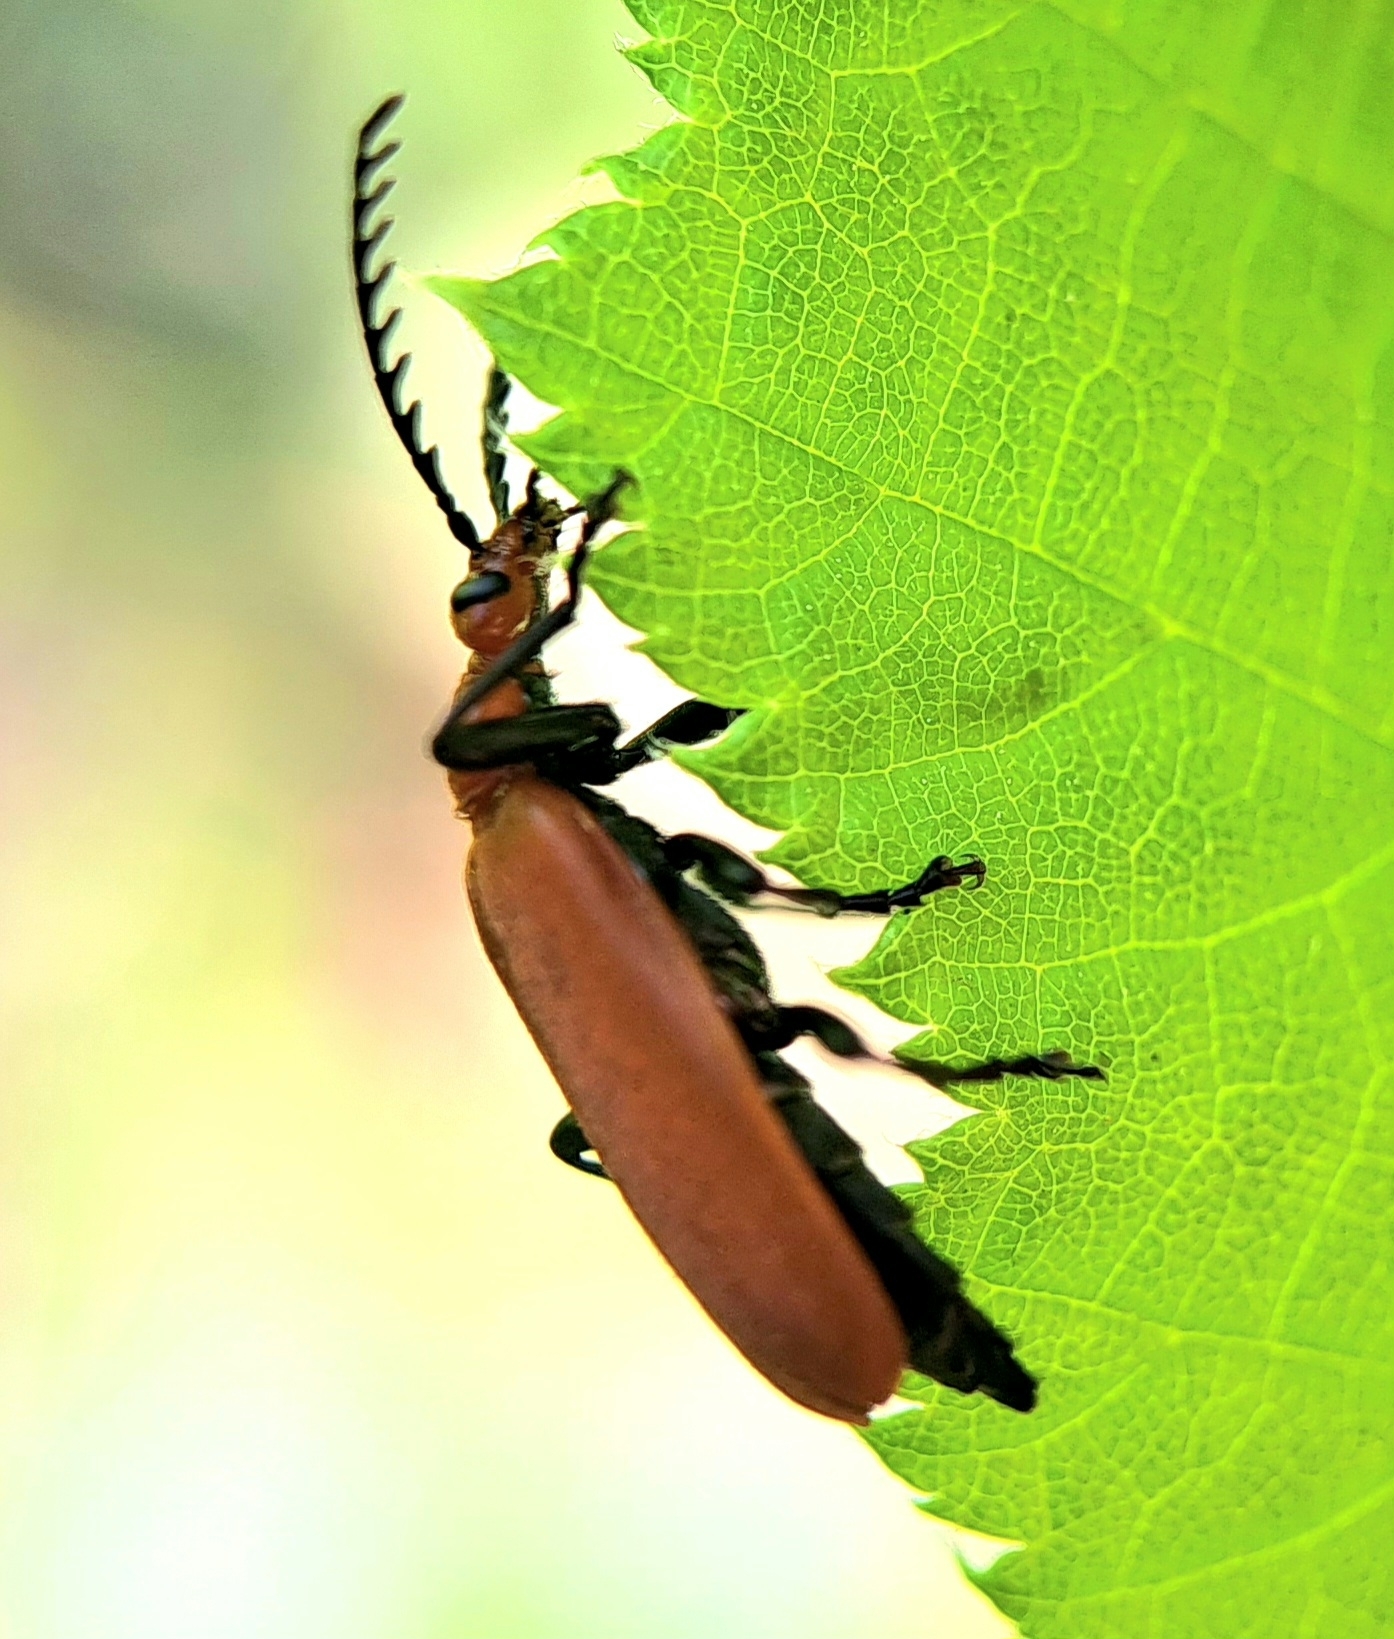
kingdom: Animalia
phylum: Arthropoda
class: Insecta
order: Coleoptera
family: Pyrochroidae
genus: Pyrochroa
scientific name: Pyrochroa serraticornis
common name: Red-headed cardinal beetle
